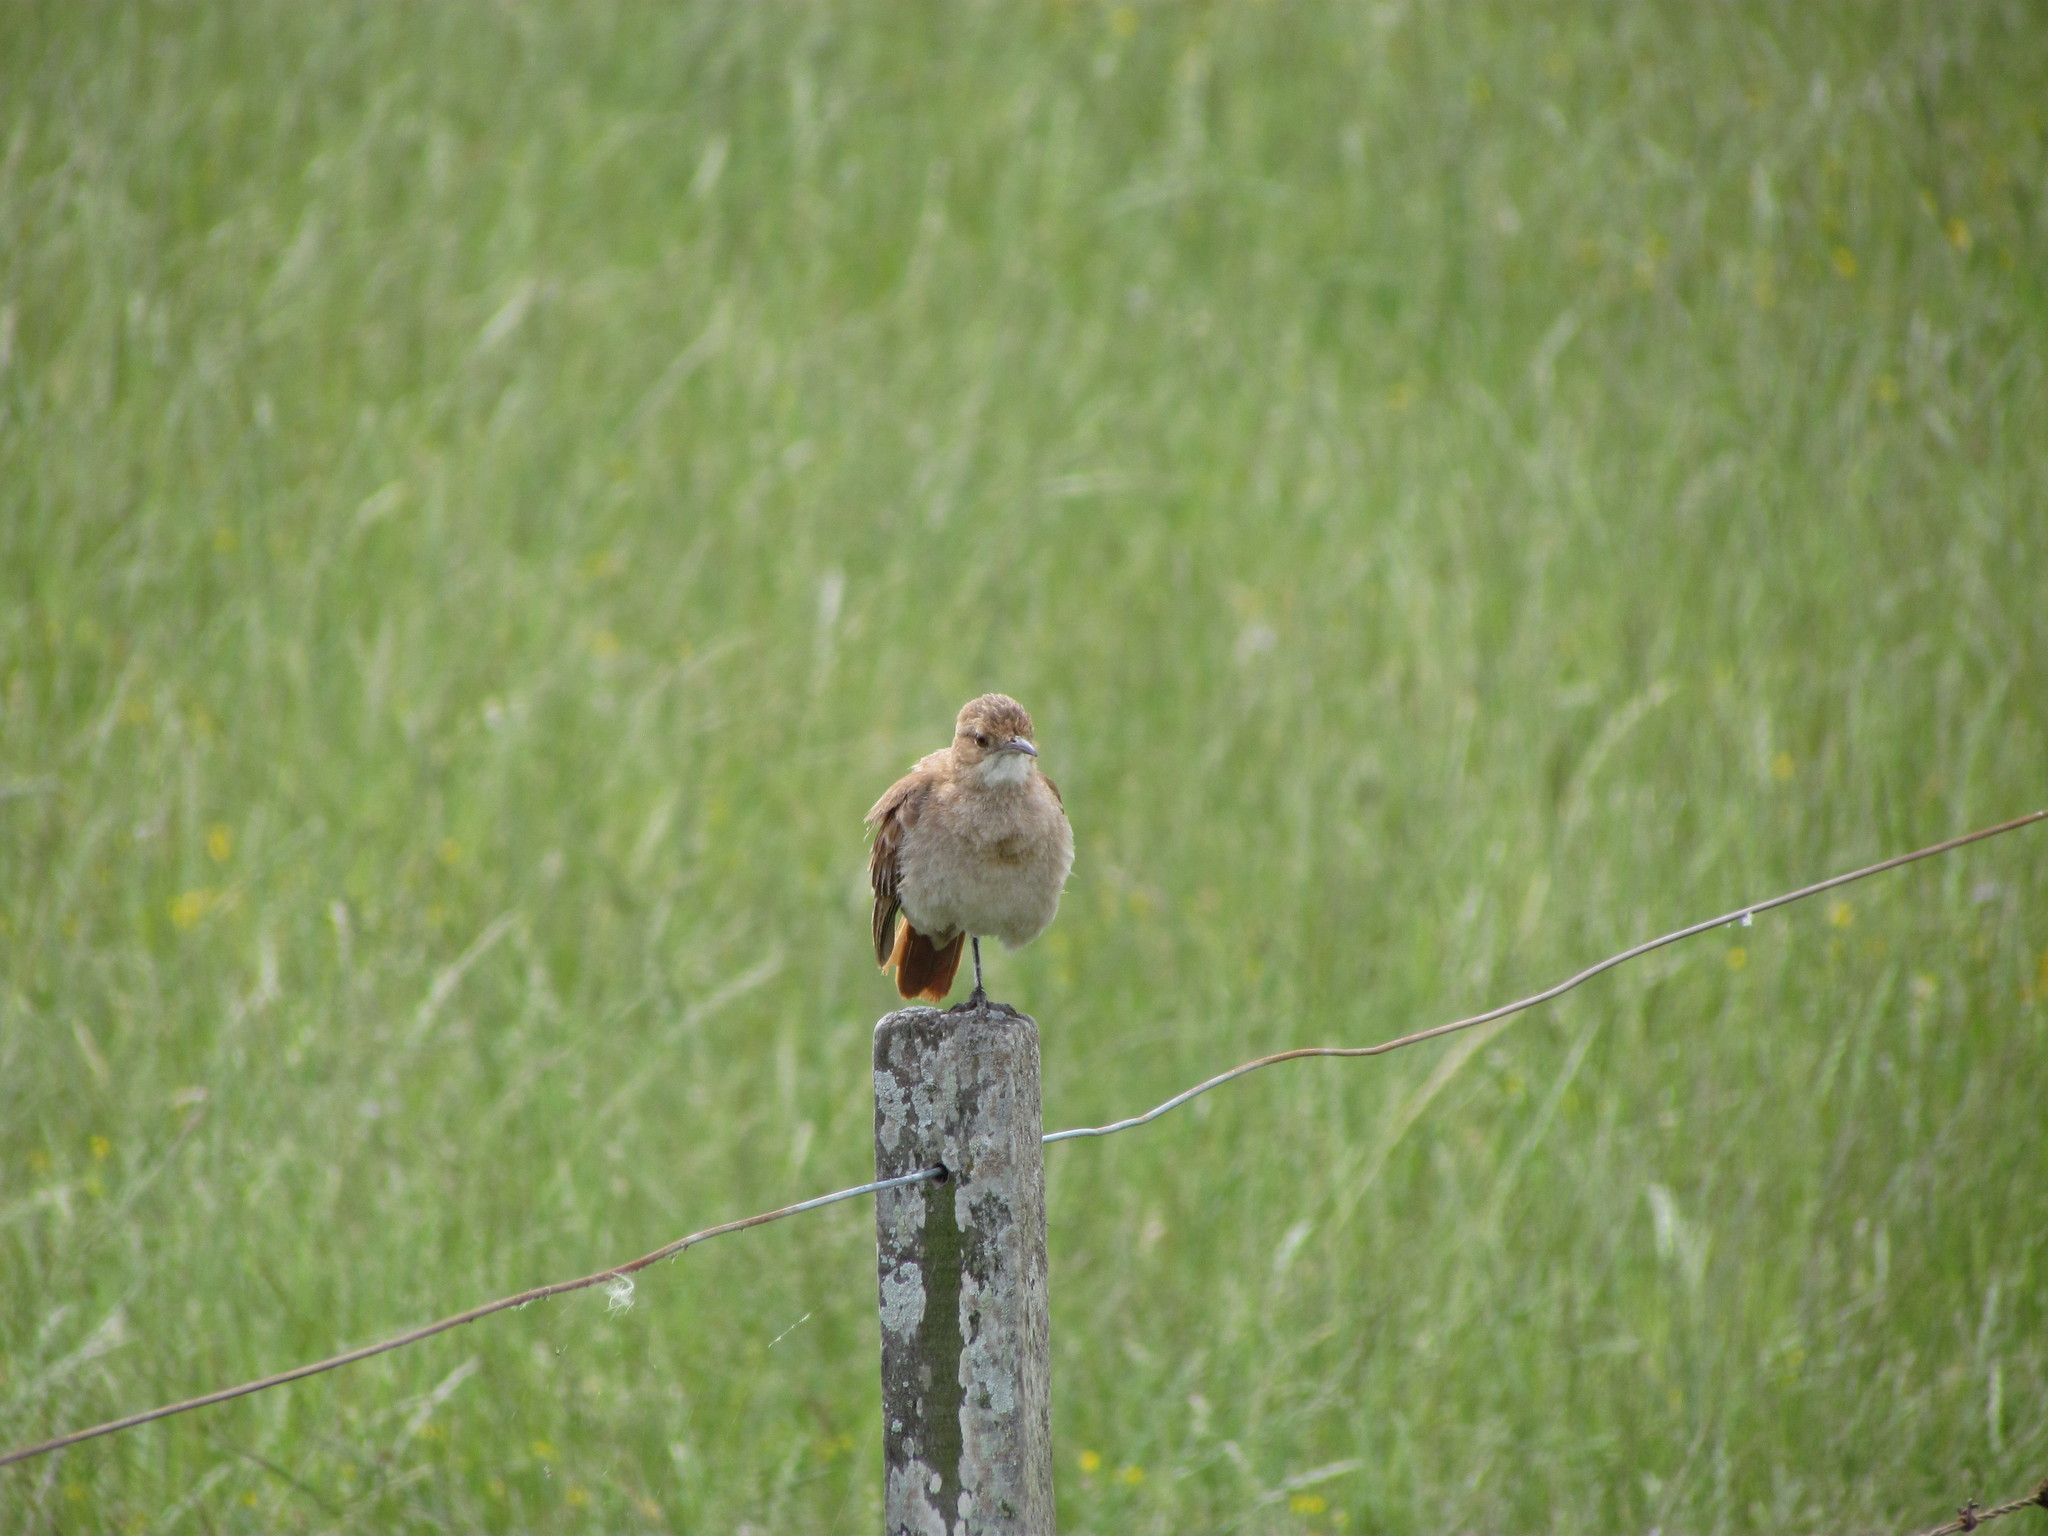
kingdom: Animalia
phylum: Chordata
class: Aves
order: Passeriformes
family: Furnariidae
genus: Furnarius
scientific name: Furnarius rufus
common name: Rufous hornero
